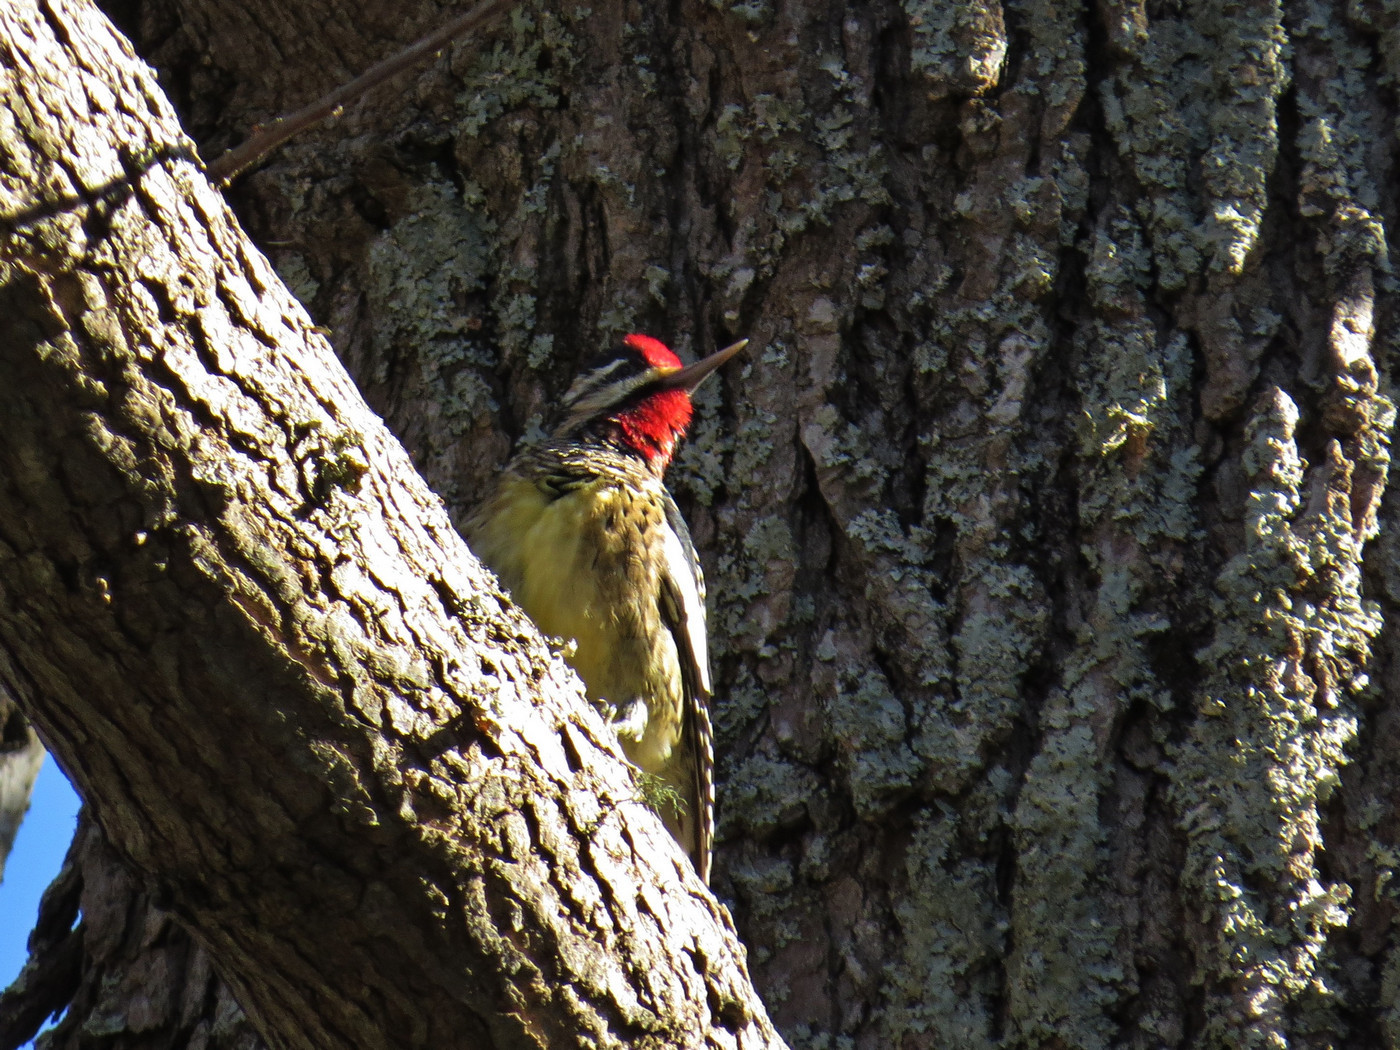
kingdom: Animalia
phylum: Chordata
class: Aves
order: Piciformes
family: Picidae
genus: Sphyrapicus
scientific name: Sphyrapicus varius
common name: Yellow-bellied sapsucker
